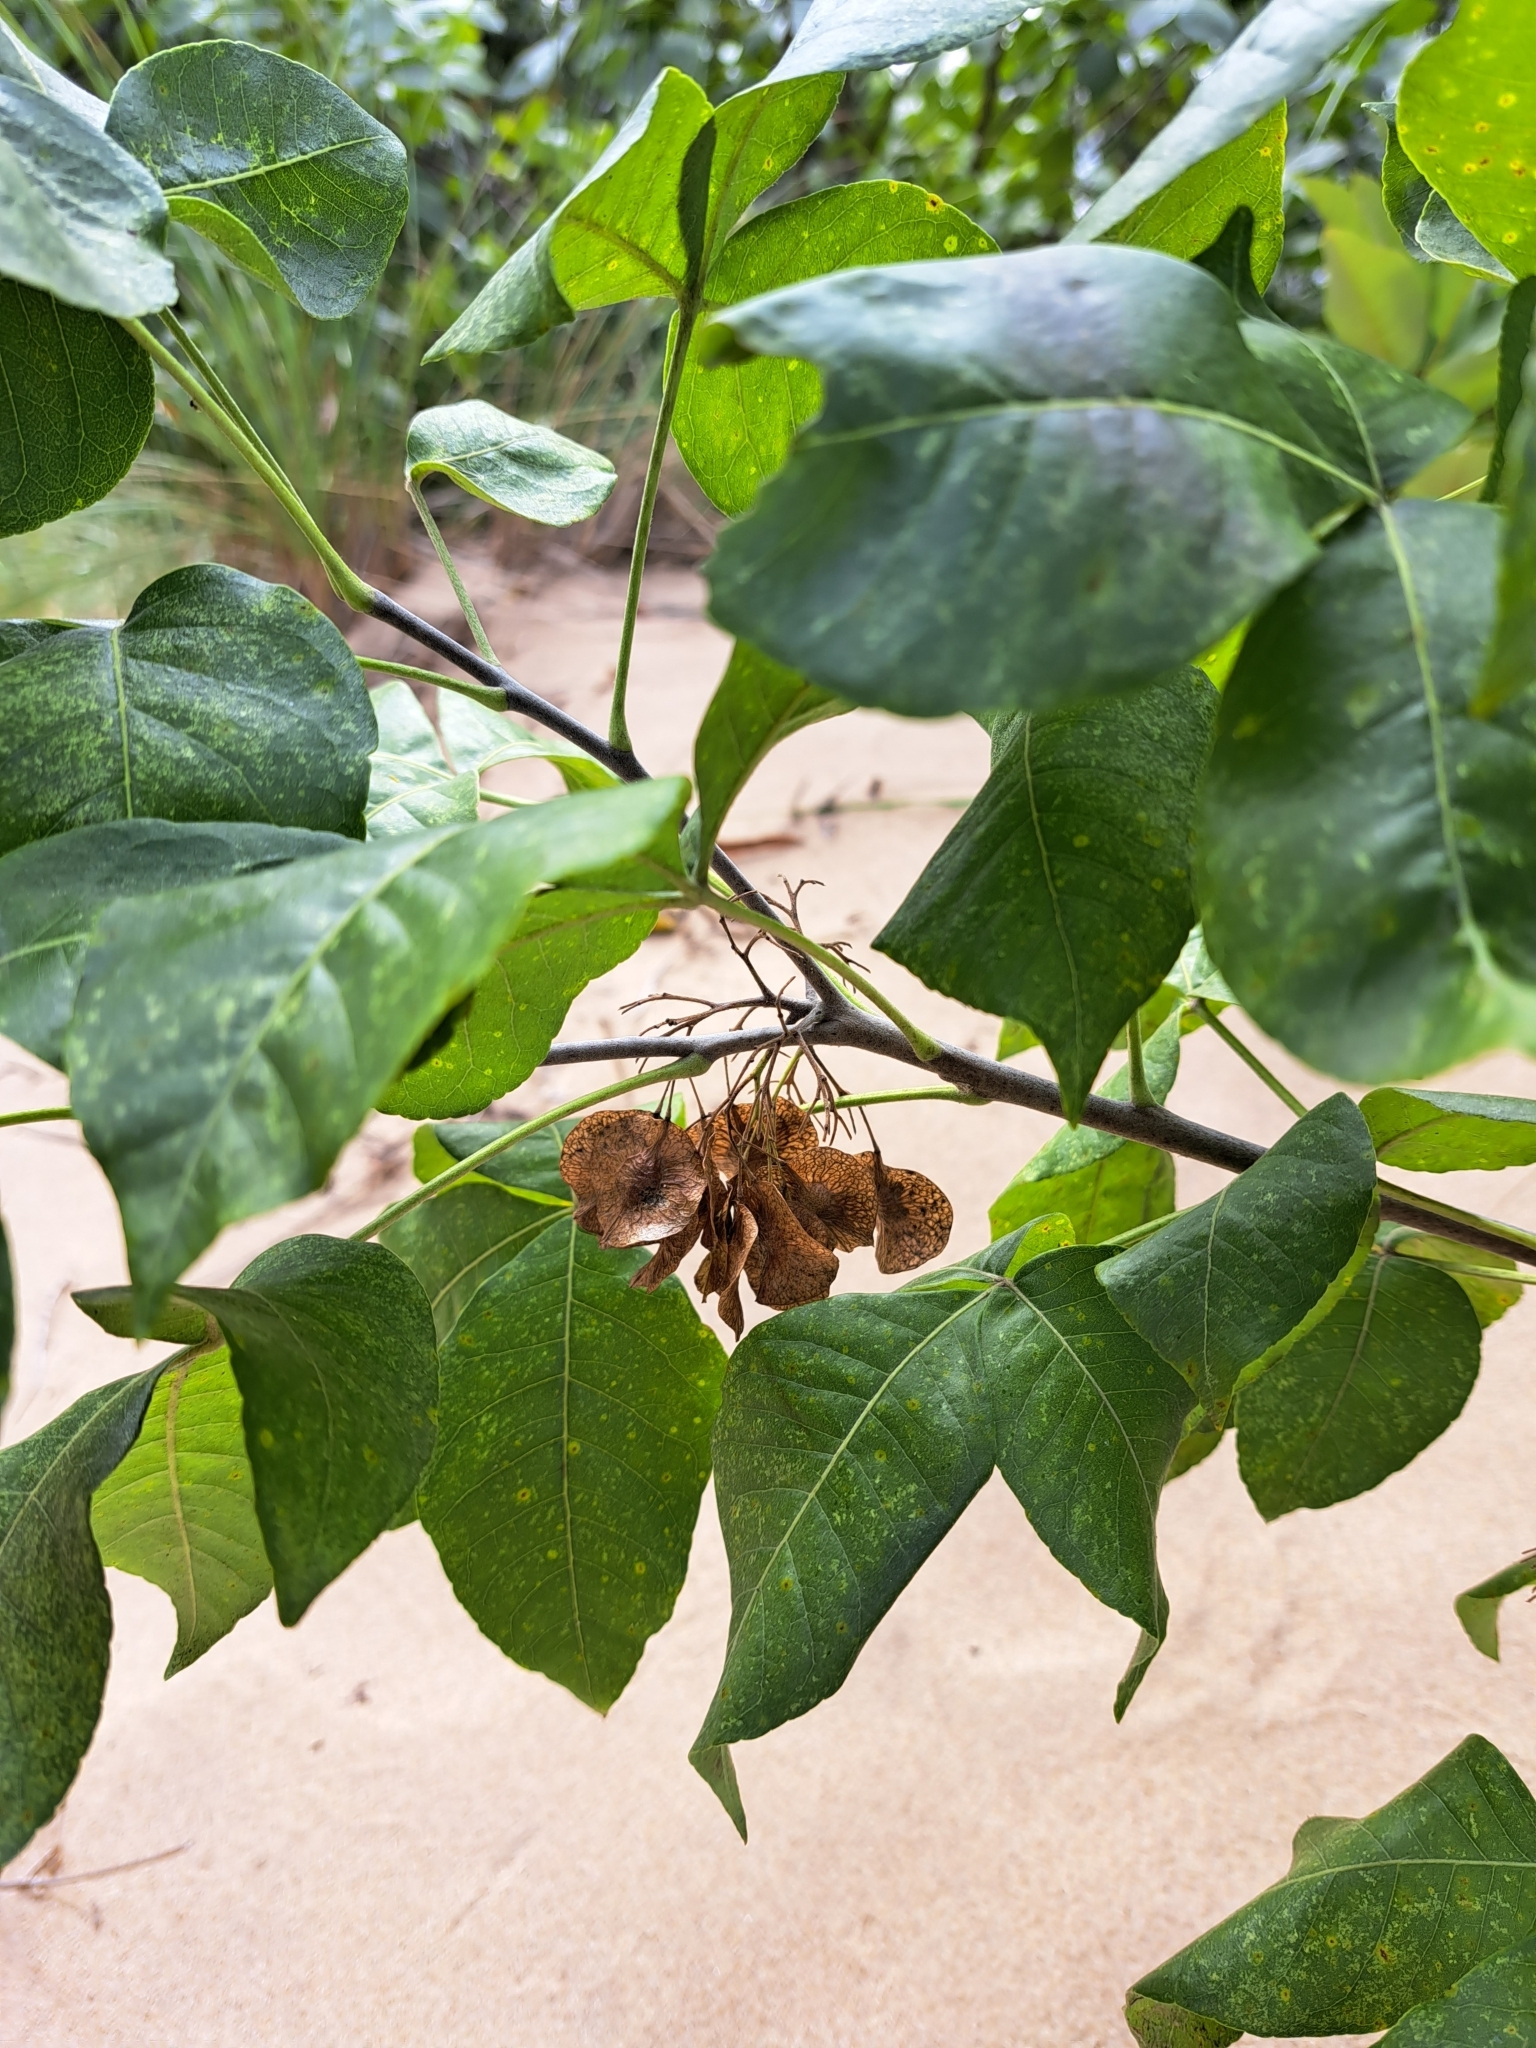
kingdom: Plantae
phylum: Tracheophyta
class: Magnoliopsida
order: Sapindales
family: Rutaceae
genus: Ptelea
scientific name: Ptelea trifoliata
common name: Common hop-tree
